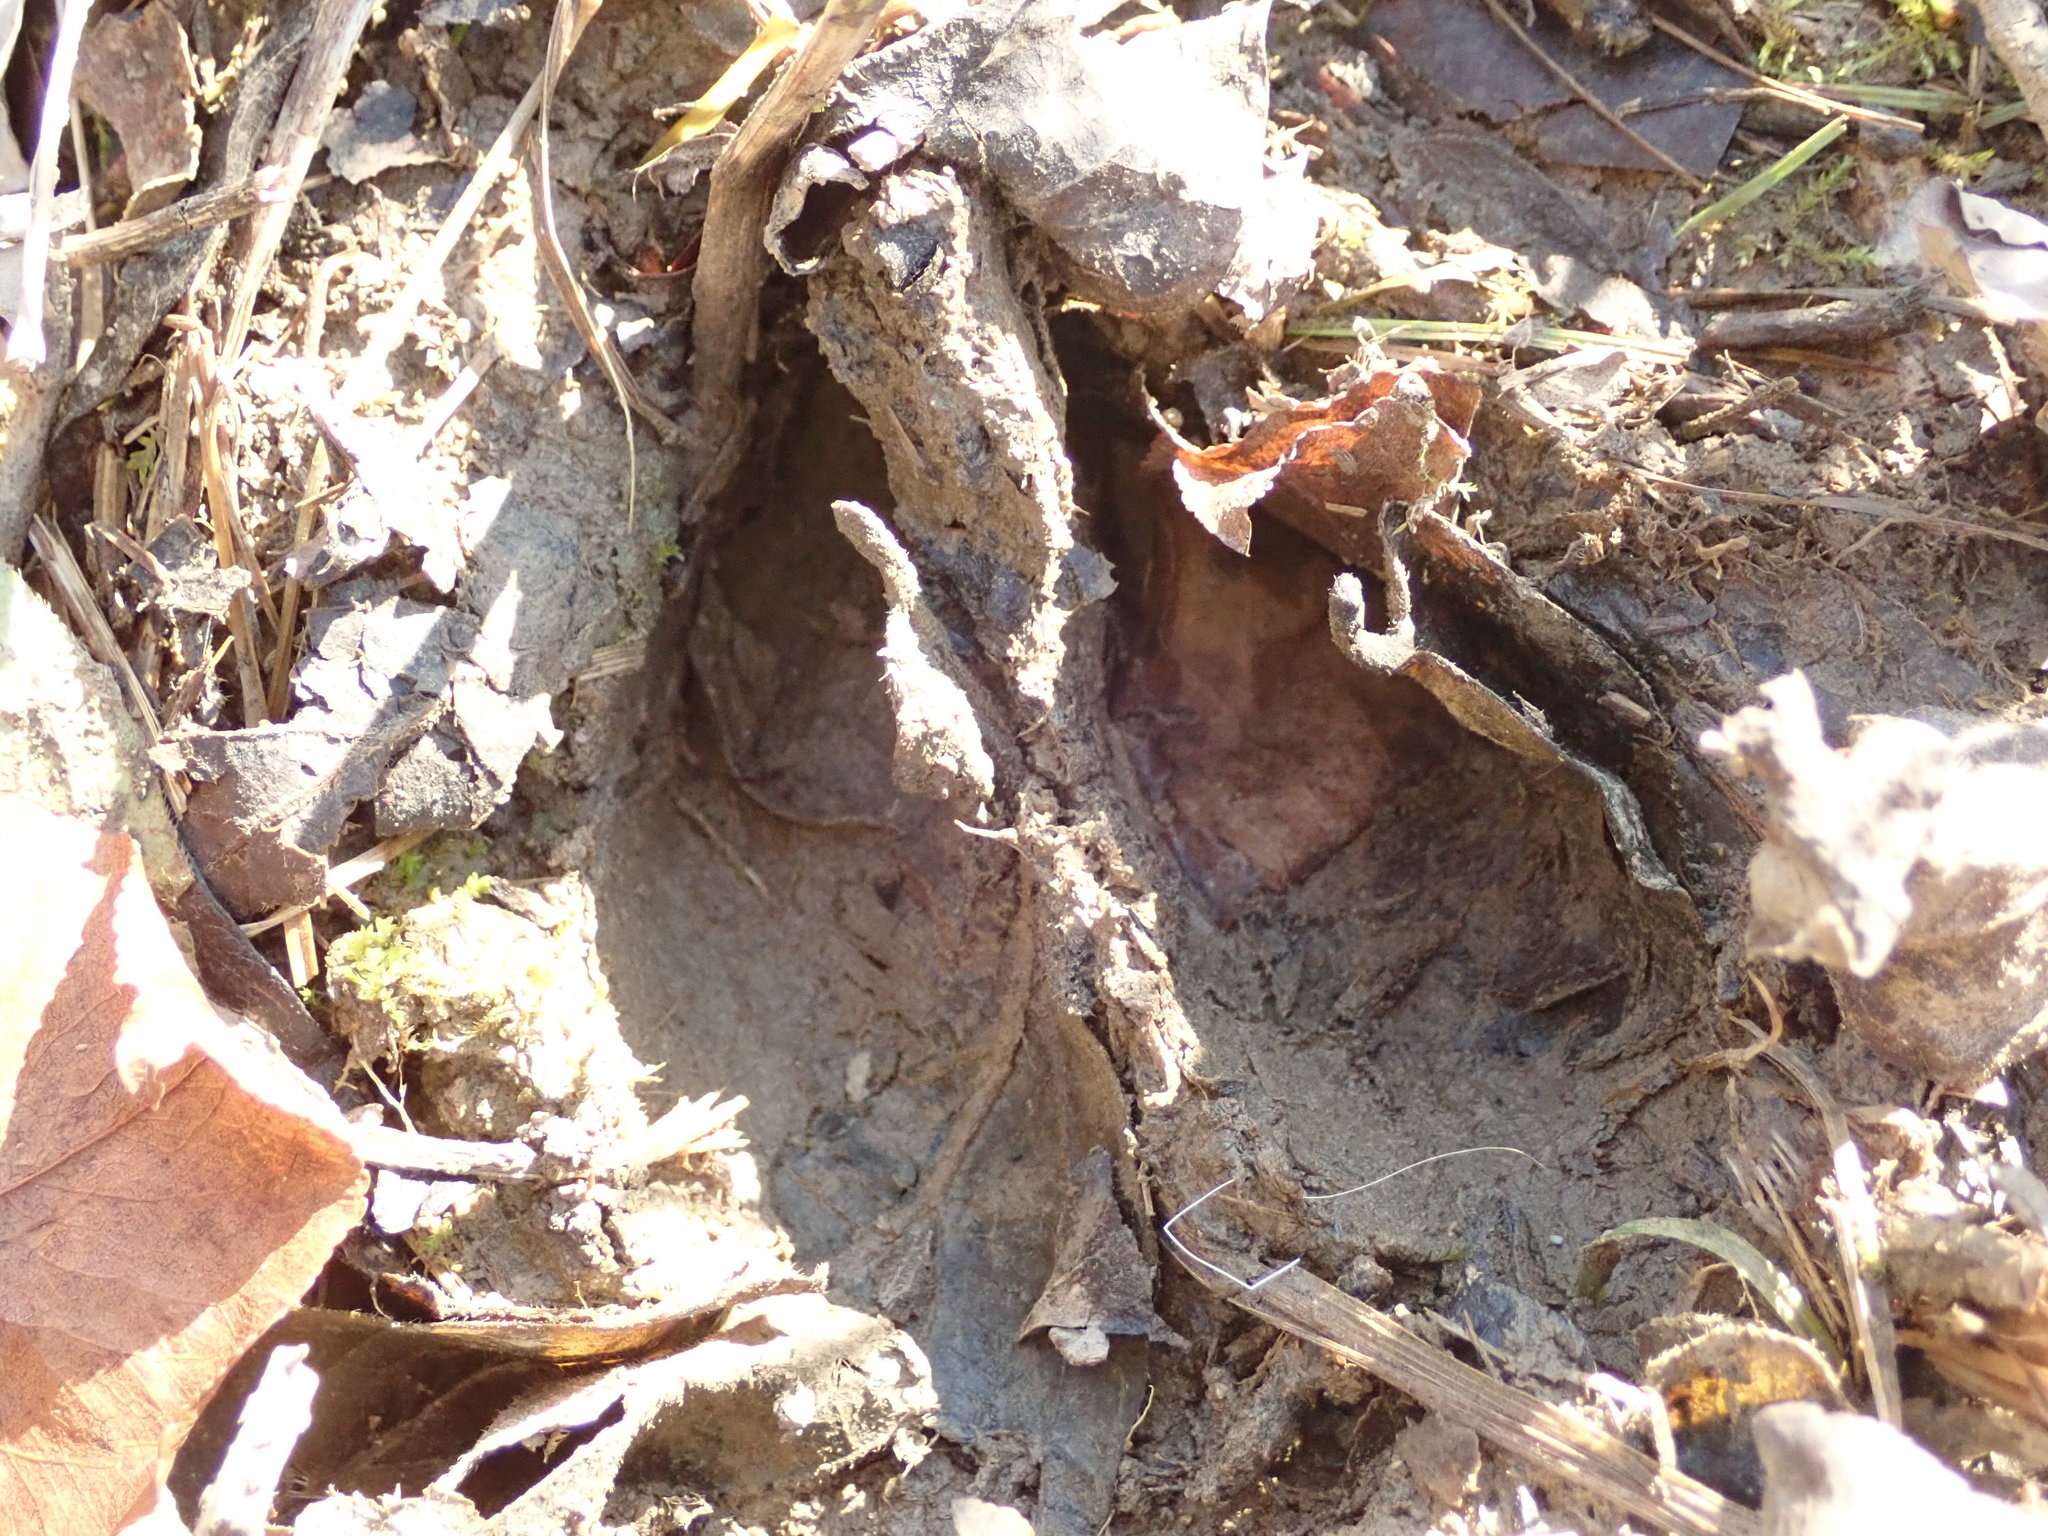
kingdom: Animalia
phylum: Chordata
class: Mammalia
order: Artiodactyla
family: Cervidae
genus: Odocoileus
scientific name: Odocoileus virginianus
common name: White-tailed deer
